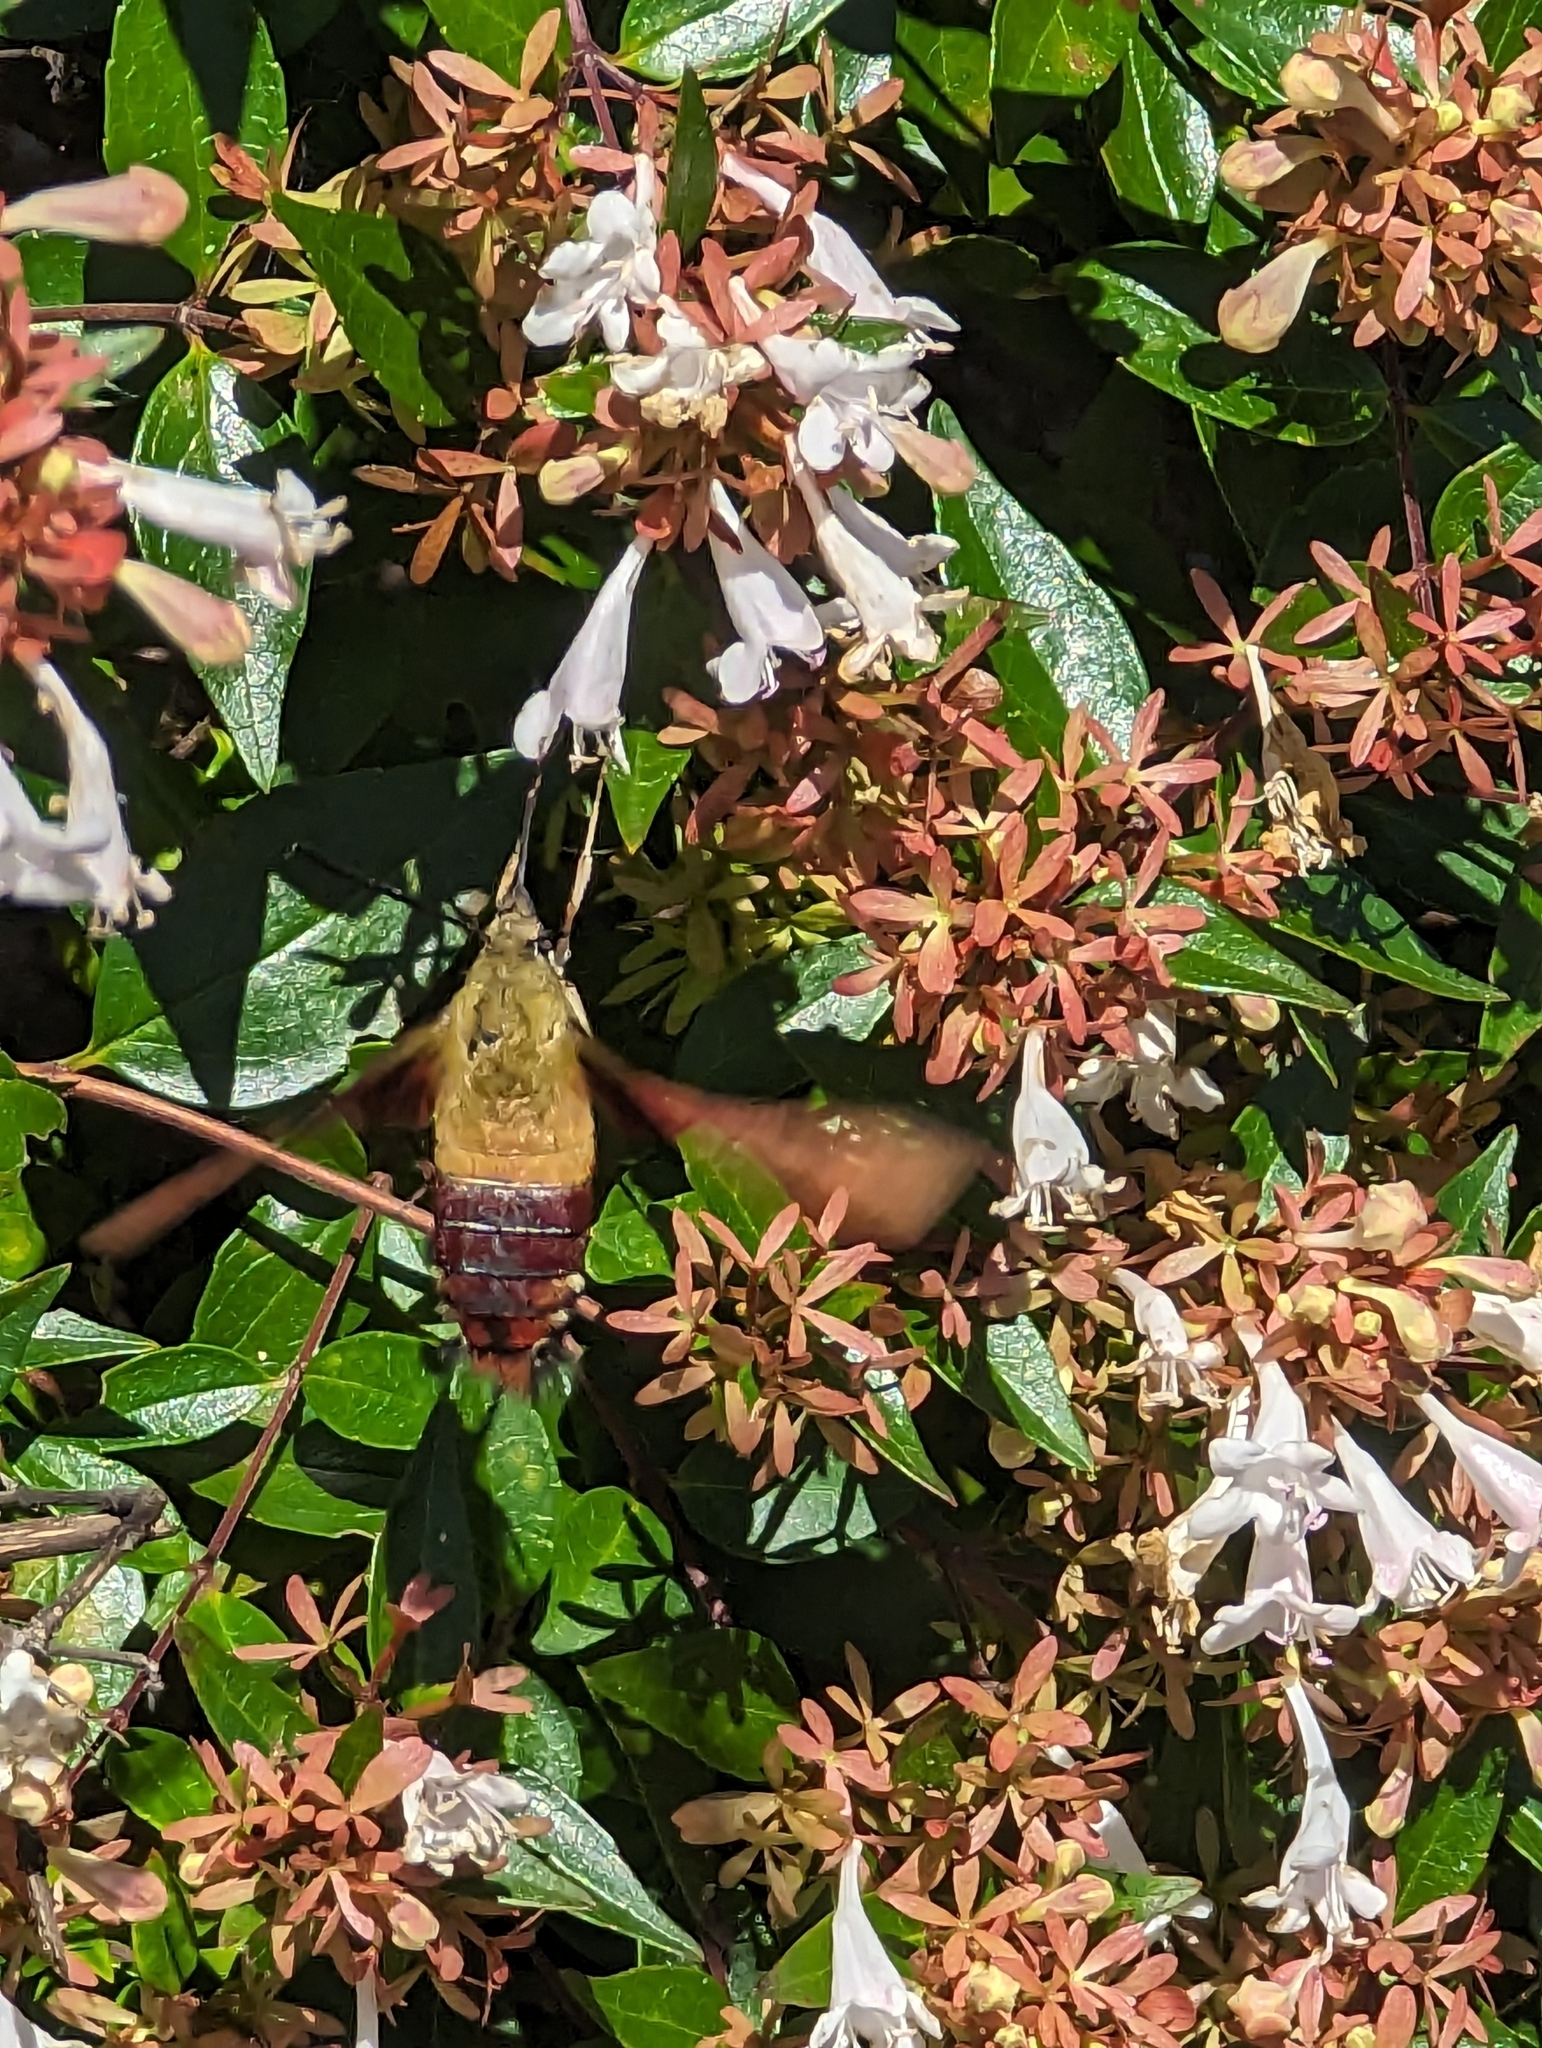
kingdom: Animalia
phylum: Arthropoda
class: Insecta
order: Lepidoptera
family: Sphingidae
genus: Hemaris
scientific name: Hemaris thysbe
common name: Common clear-wing
